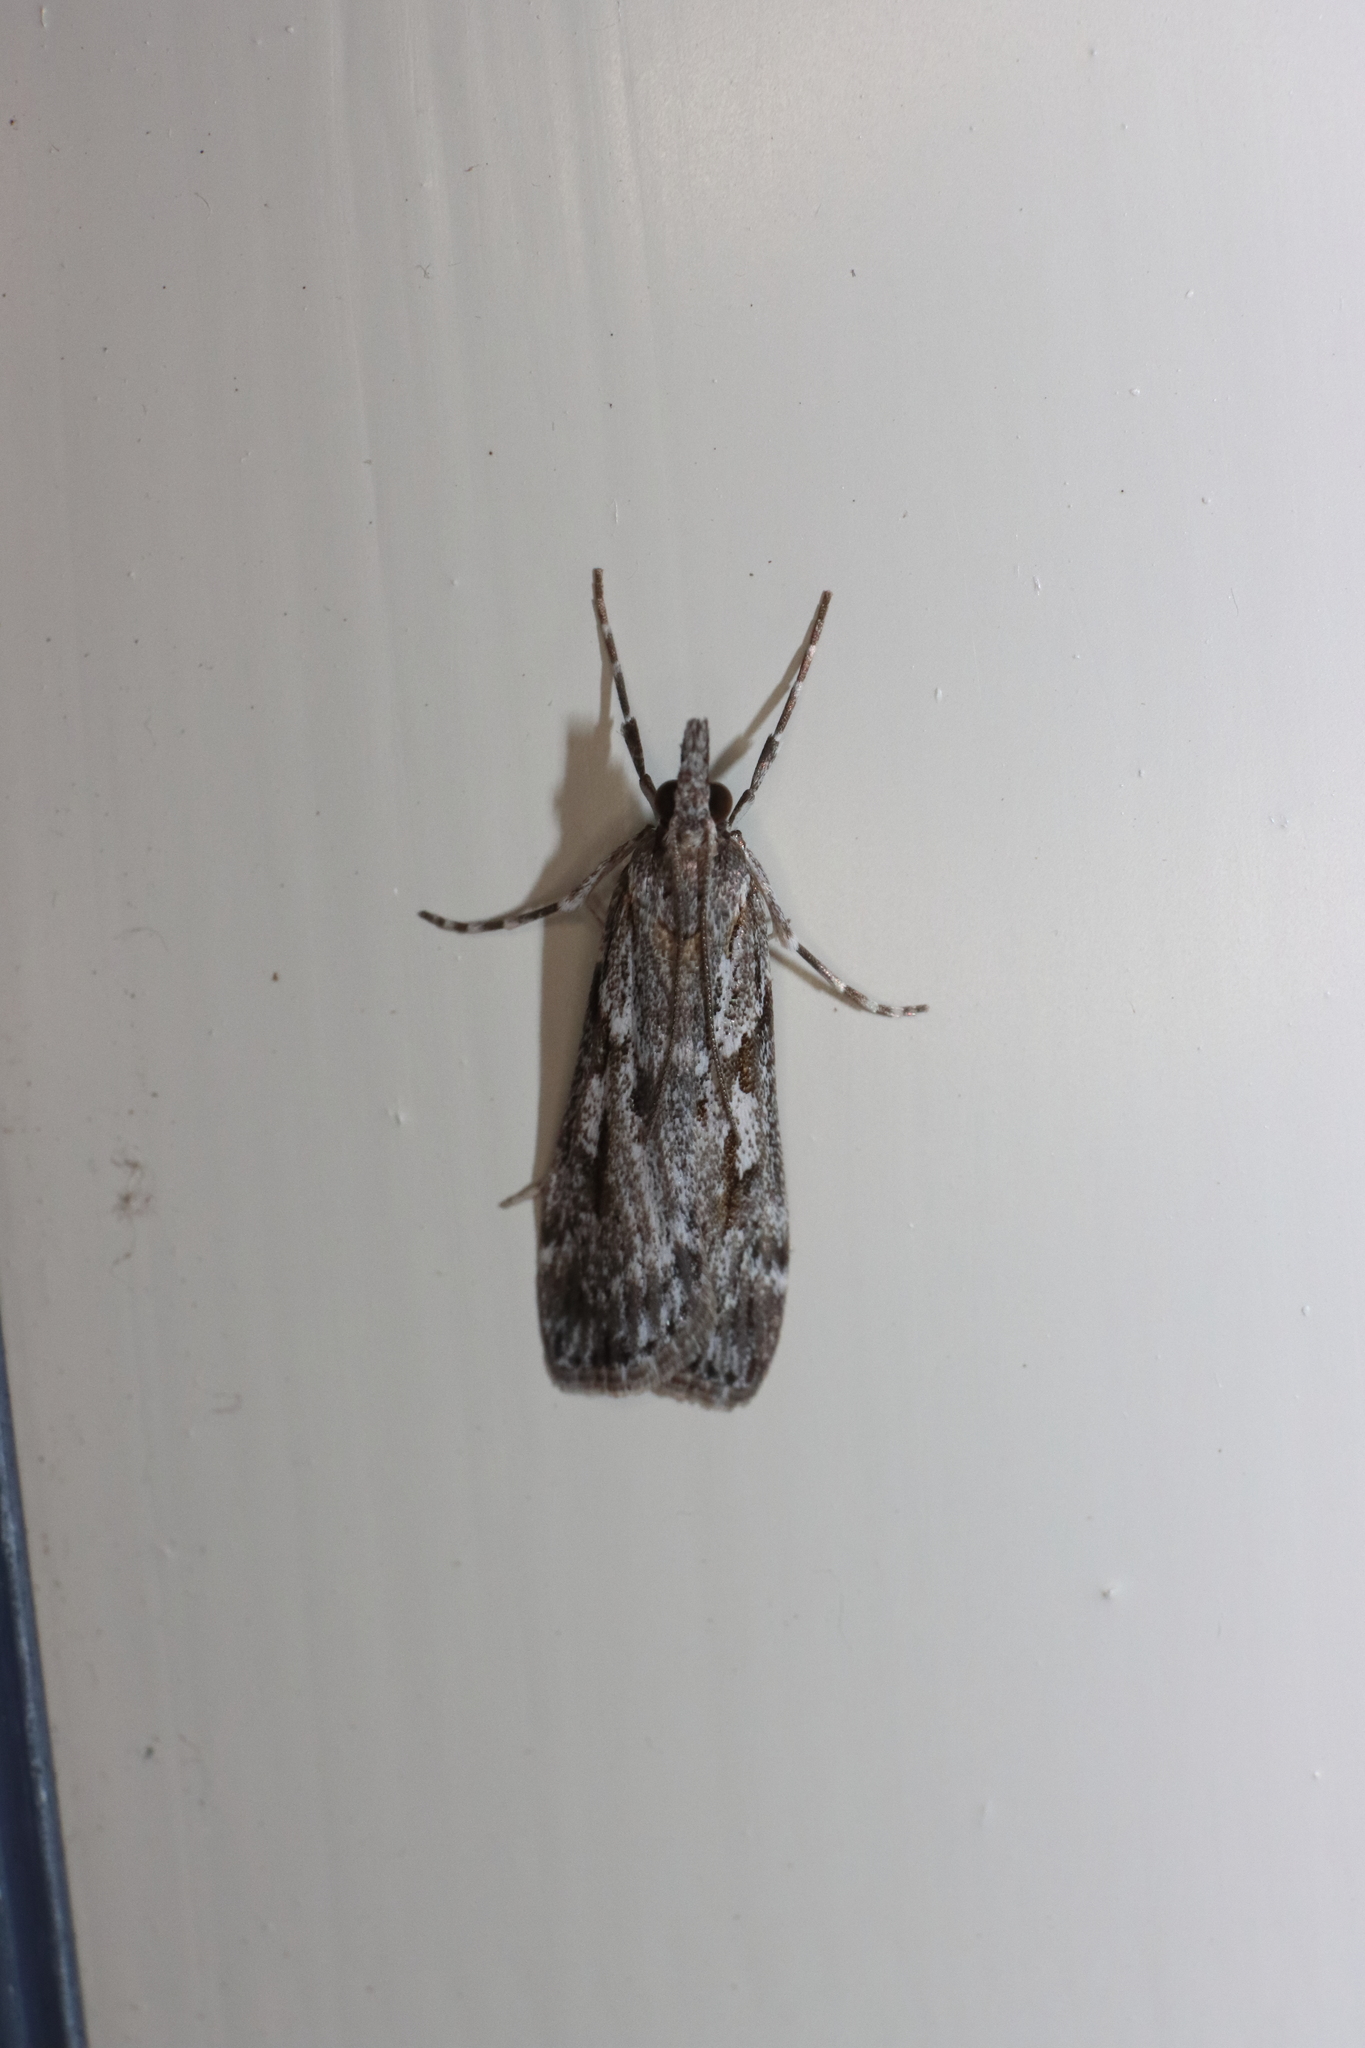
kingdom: Animalia
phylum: Arthropoda
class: Insecta
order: Lepidoptera
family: Crambidae
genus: Scoparia
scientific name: Scoparia halopis
